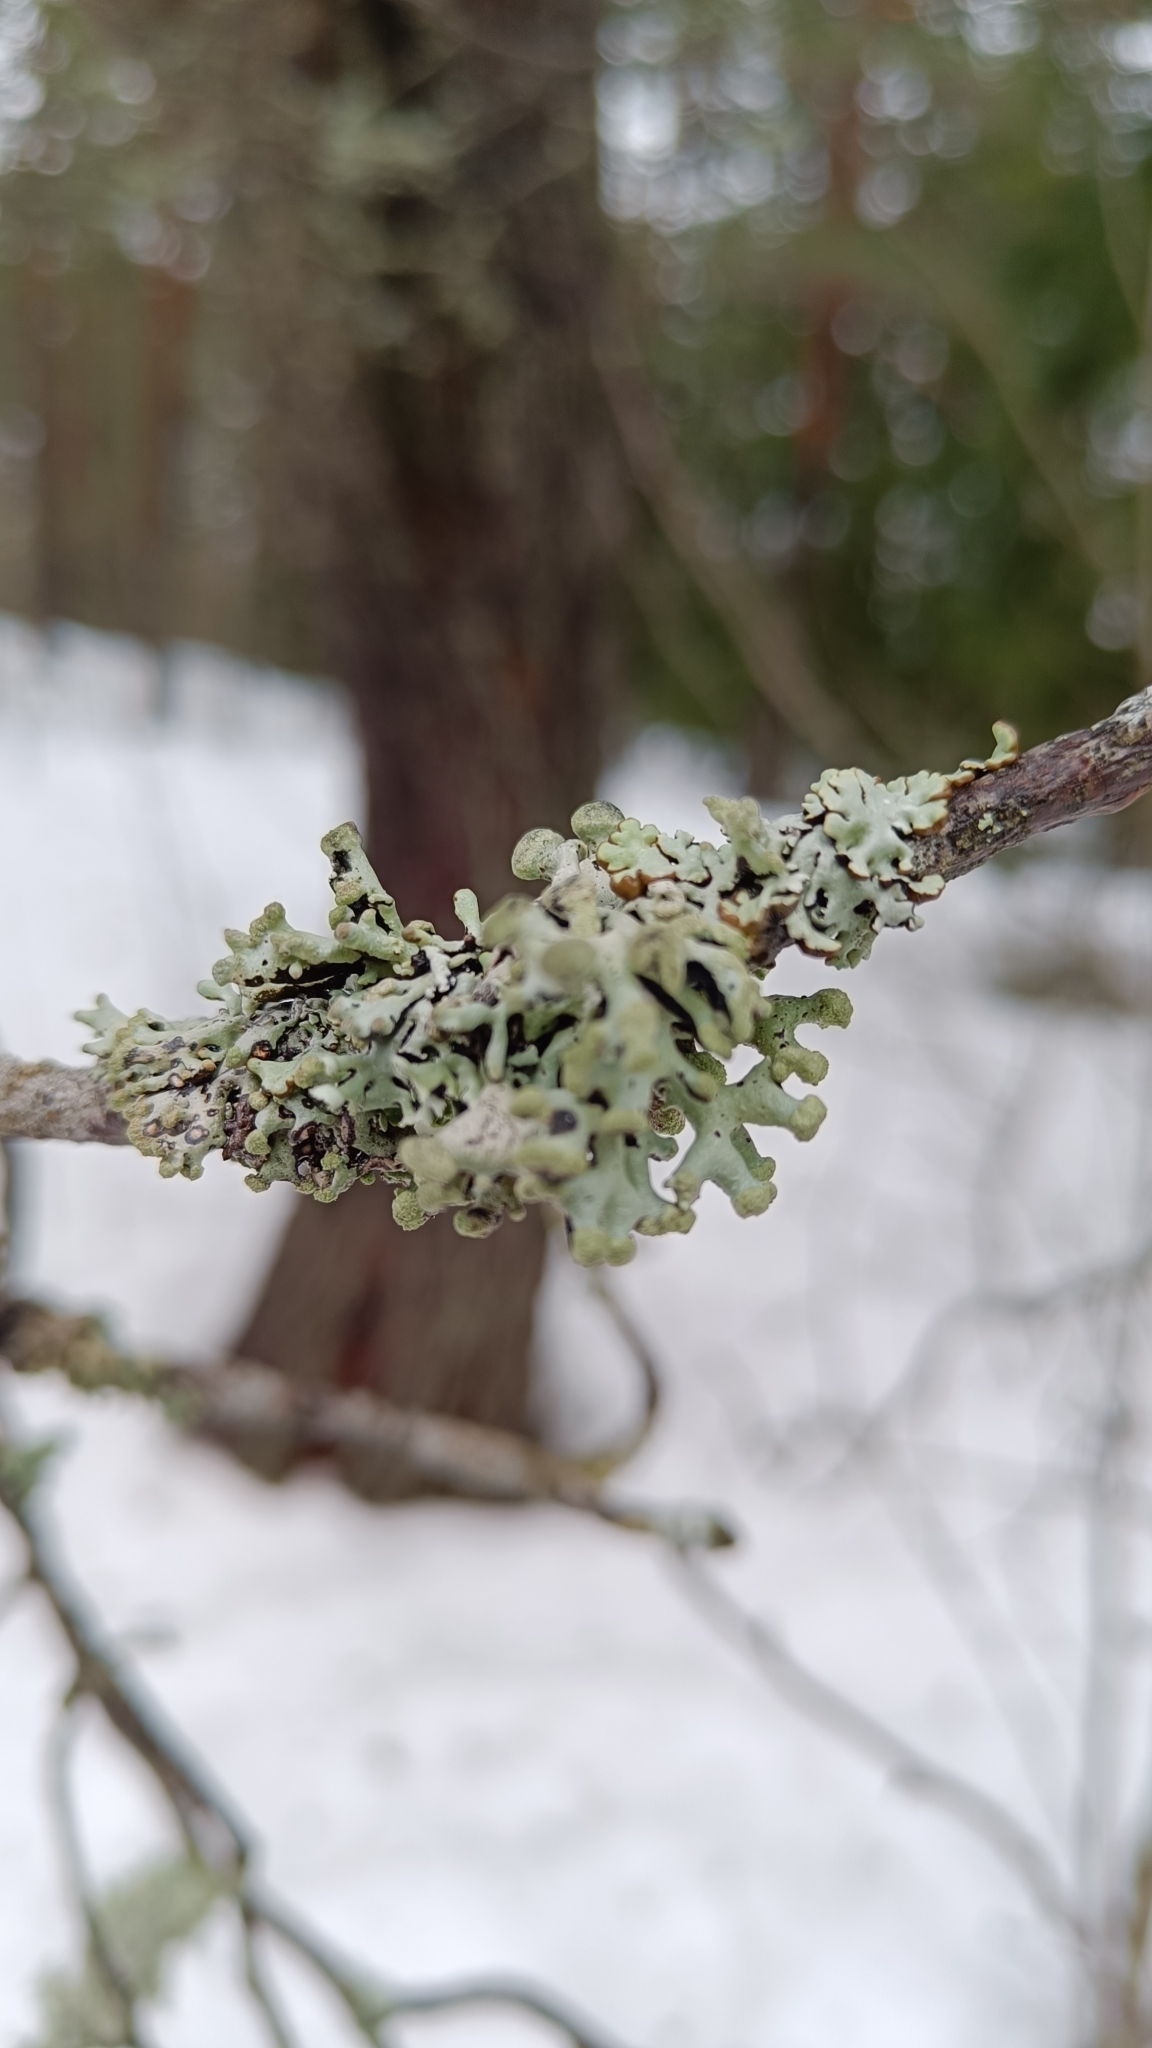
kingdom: Fungi
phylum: Ascomycota
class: Lecanoromycetes
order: Lecanorales
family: Parmeliaceae
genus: Hypogymnia
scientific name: Hypogymnia tubulosa
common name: Powder-headed tube lichen
